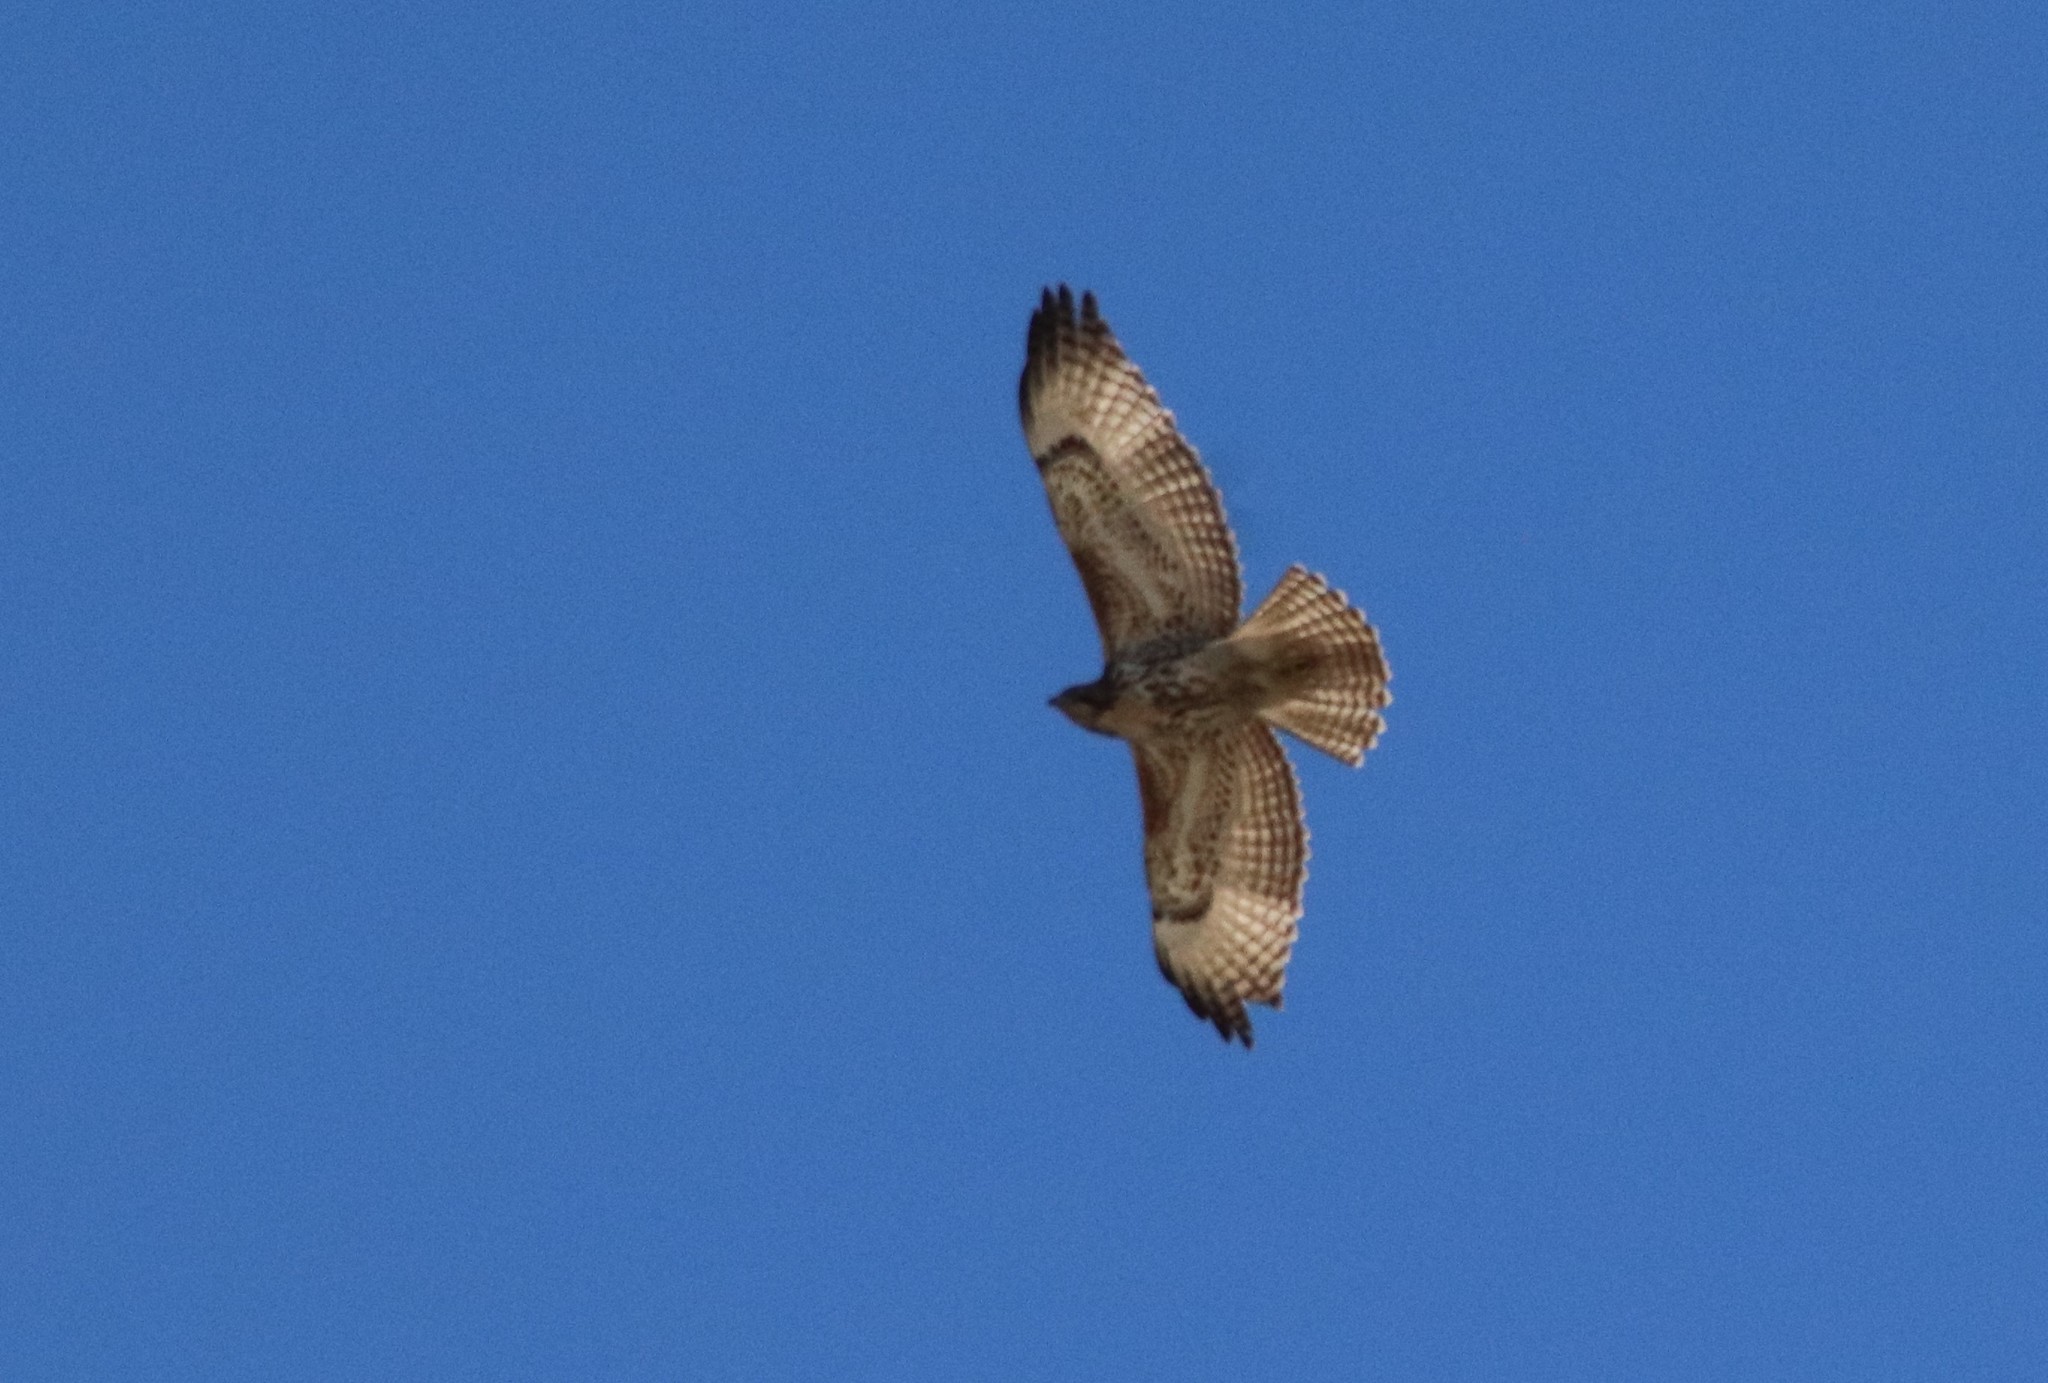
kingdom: Animalia
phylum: Chordata
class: Aves
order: Accipitriformes
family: Accipitridae
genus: Buteo
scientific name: Buteo jamaicensis
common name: Red-tailed hawk
